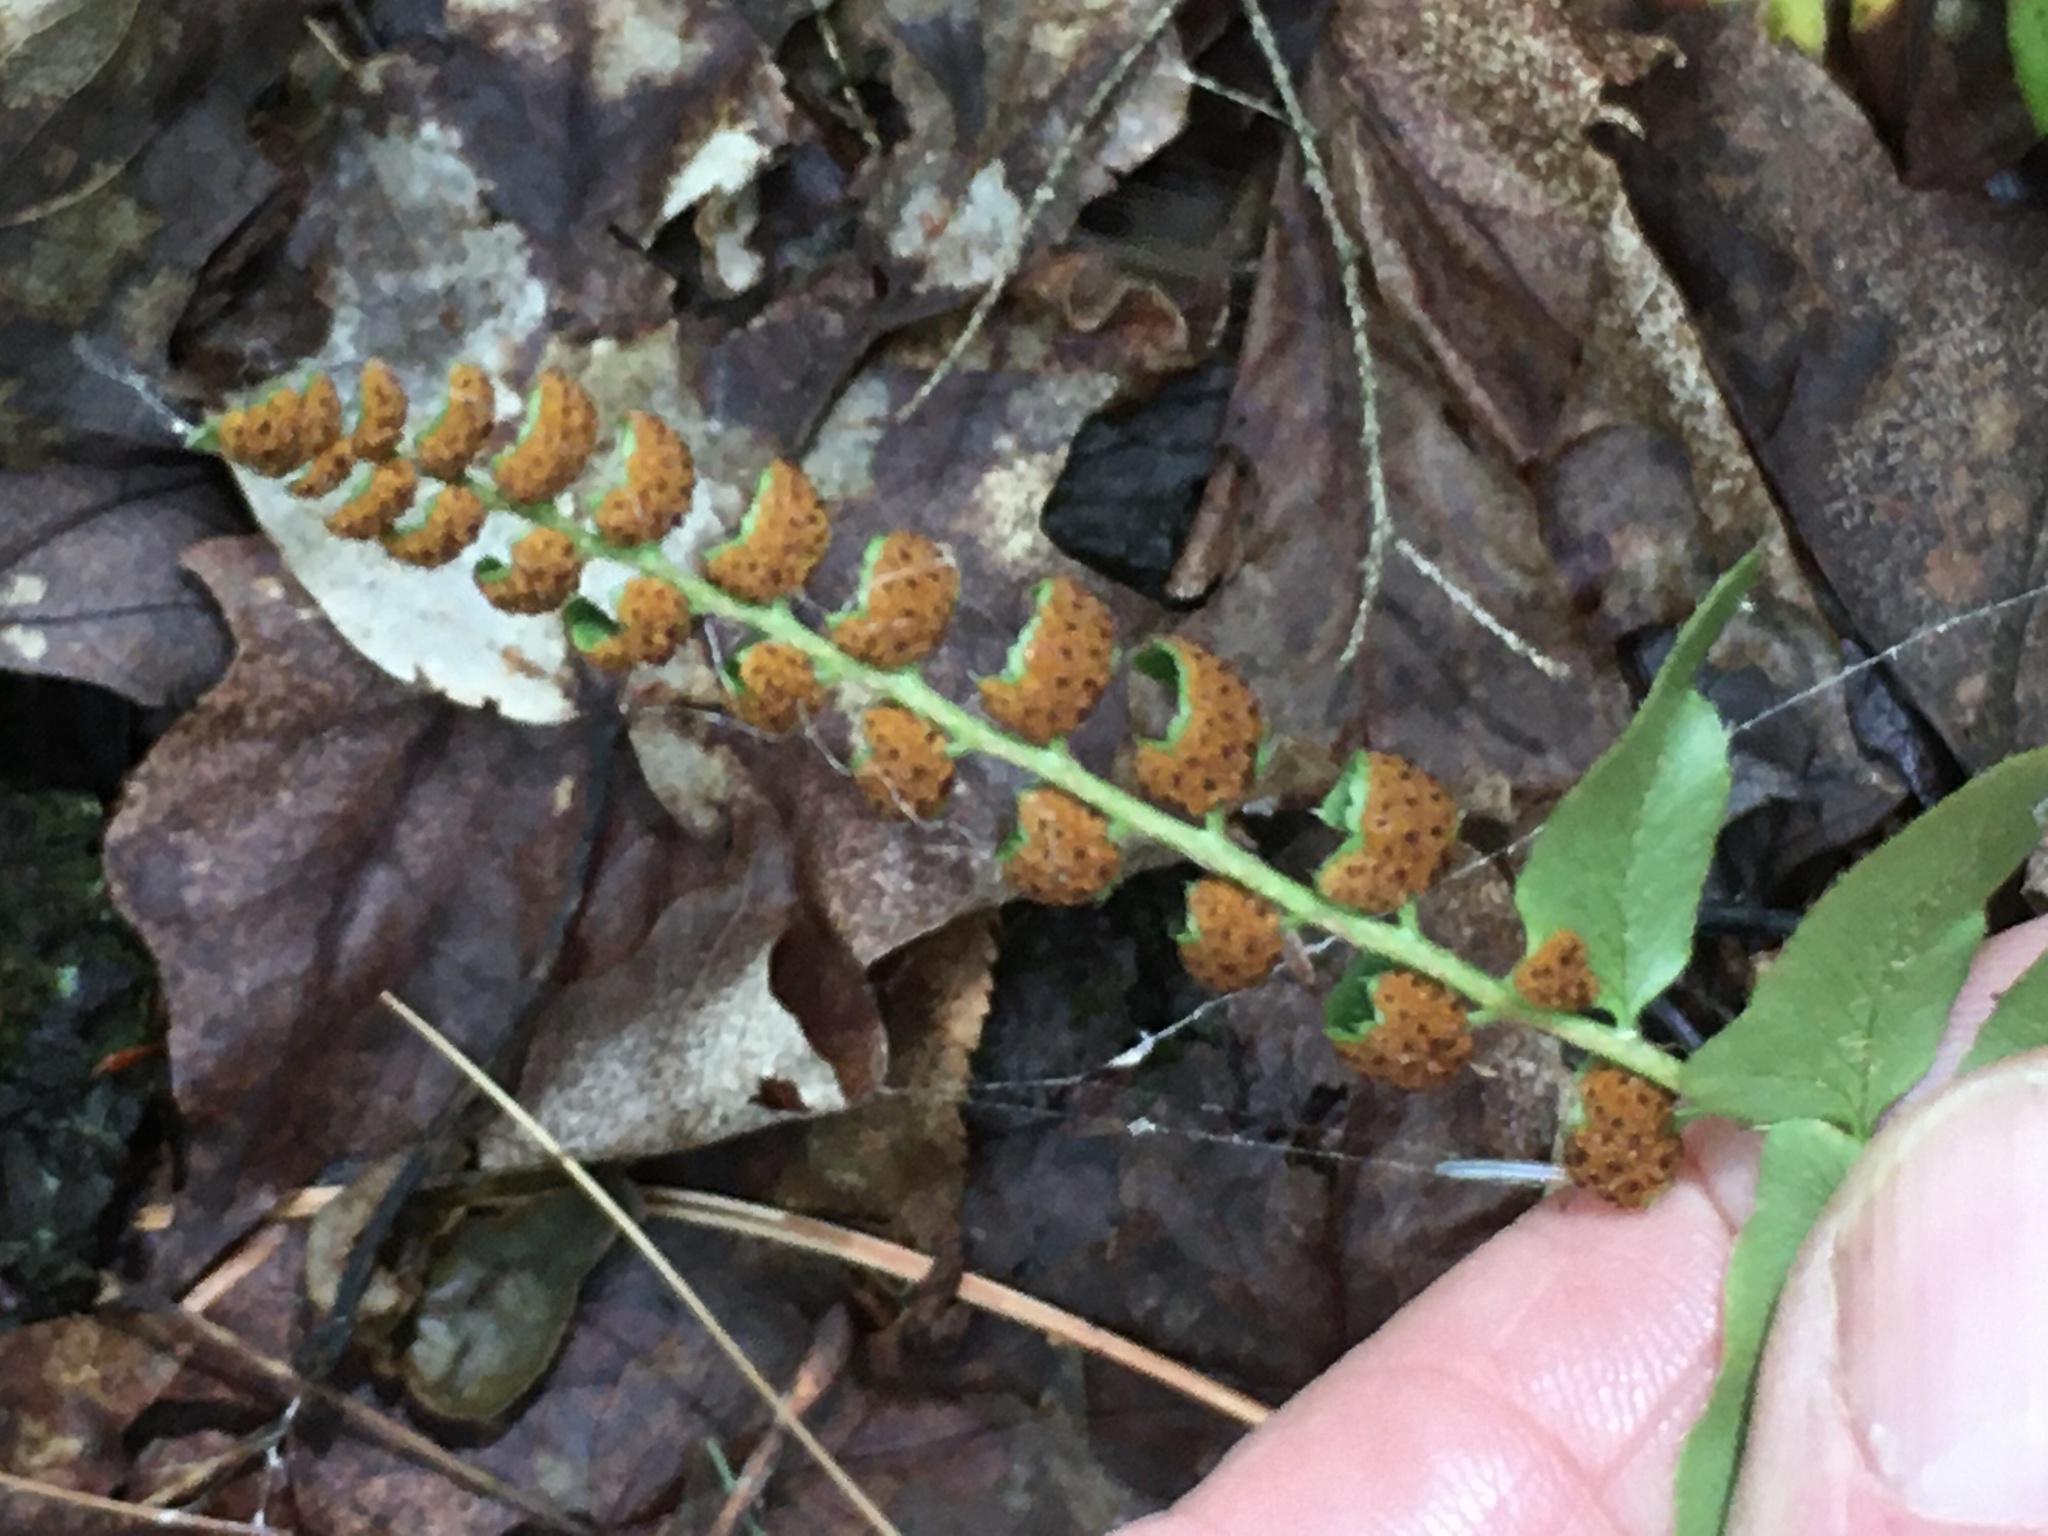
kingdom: Plantae
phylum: Tracheophyta
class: Polypodiopsida
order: Polypodiales
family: Dryopteridaceae
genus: Polystichum
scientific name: Polystichum acrostichoides
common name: Christmas fern
